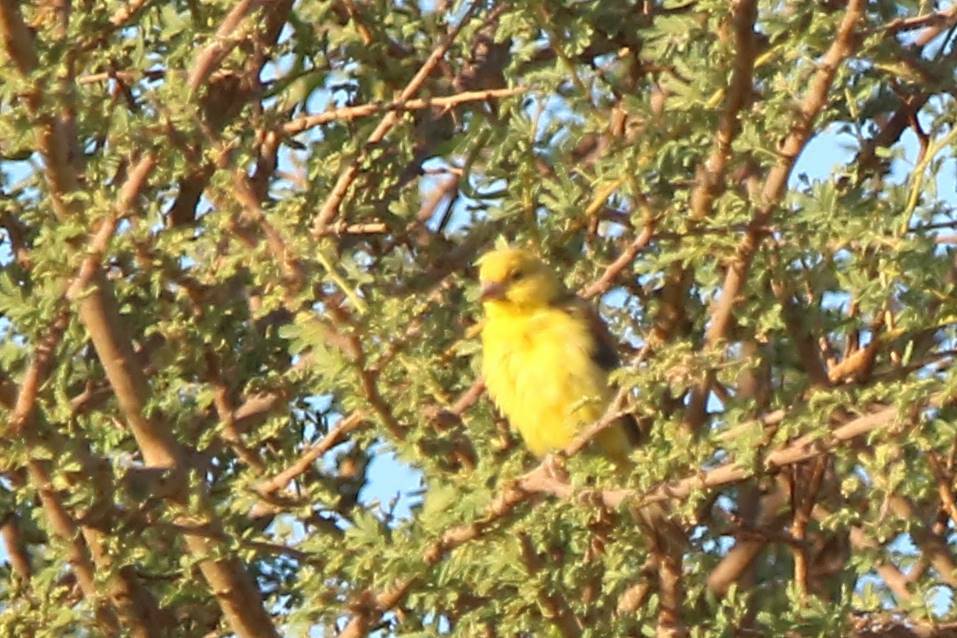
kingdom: Animalia
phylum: Chordata
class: Aves
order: Passeriformes
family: Passeridae
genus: Passer
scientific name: Passer luteus
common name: Sudan golden sparrow
